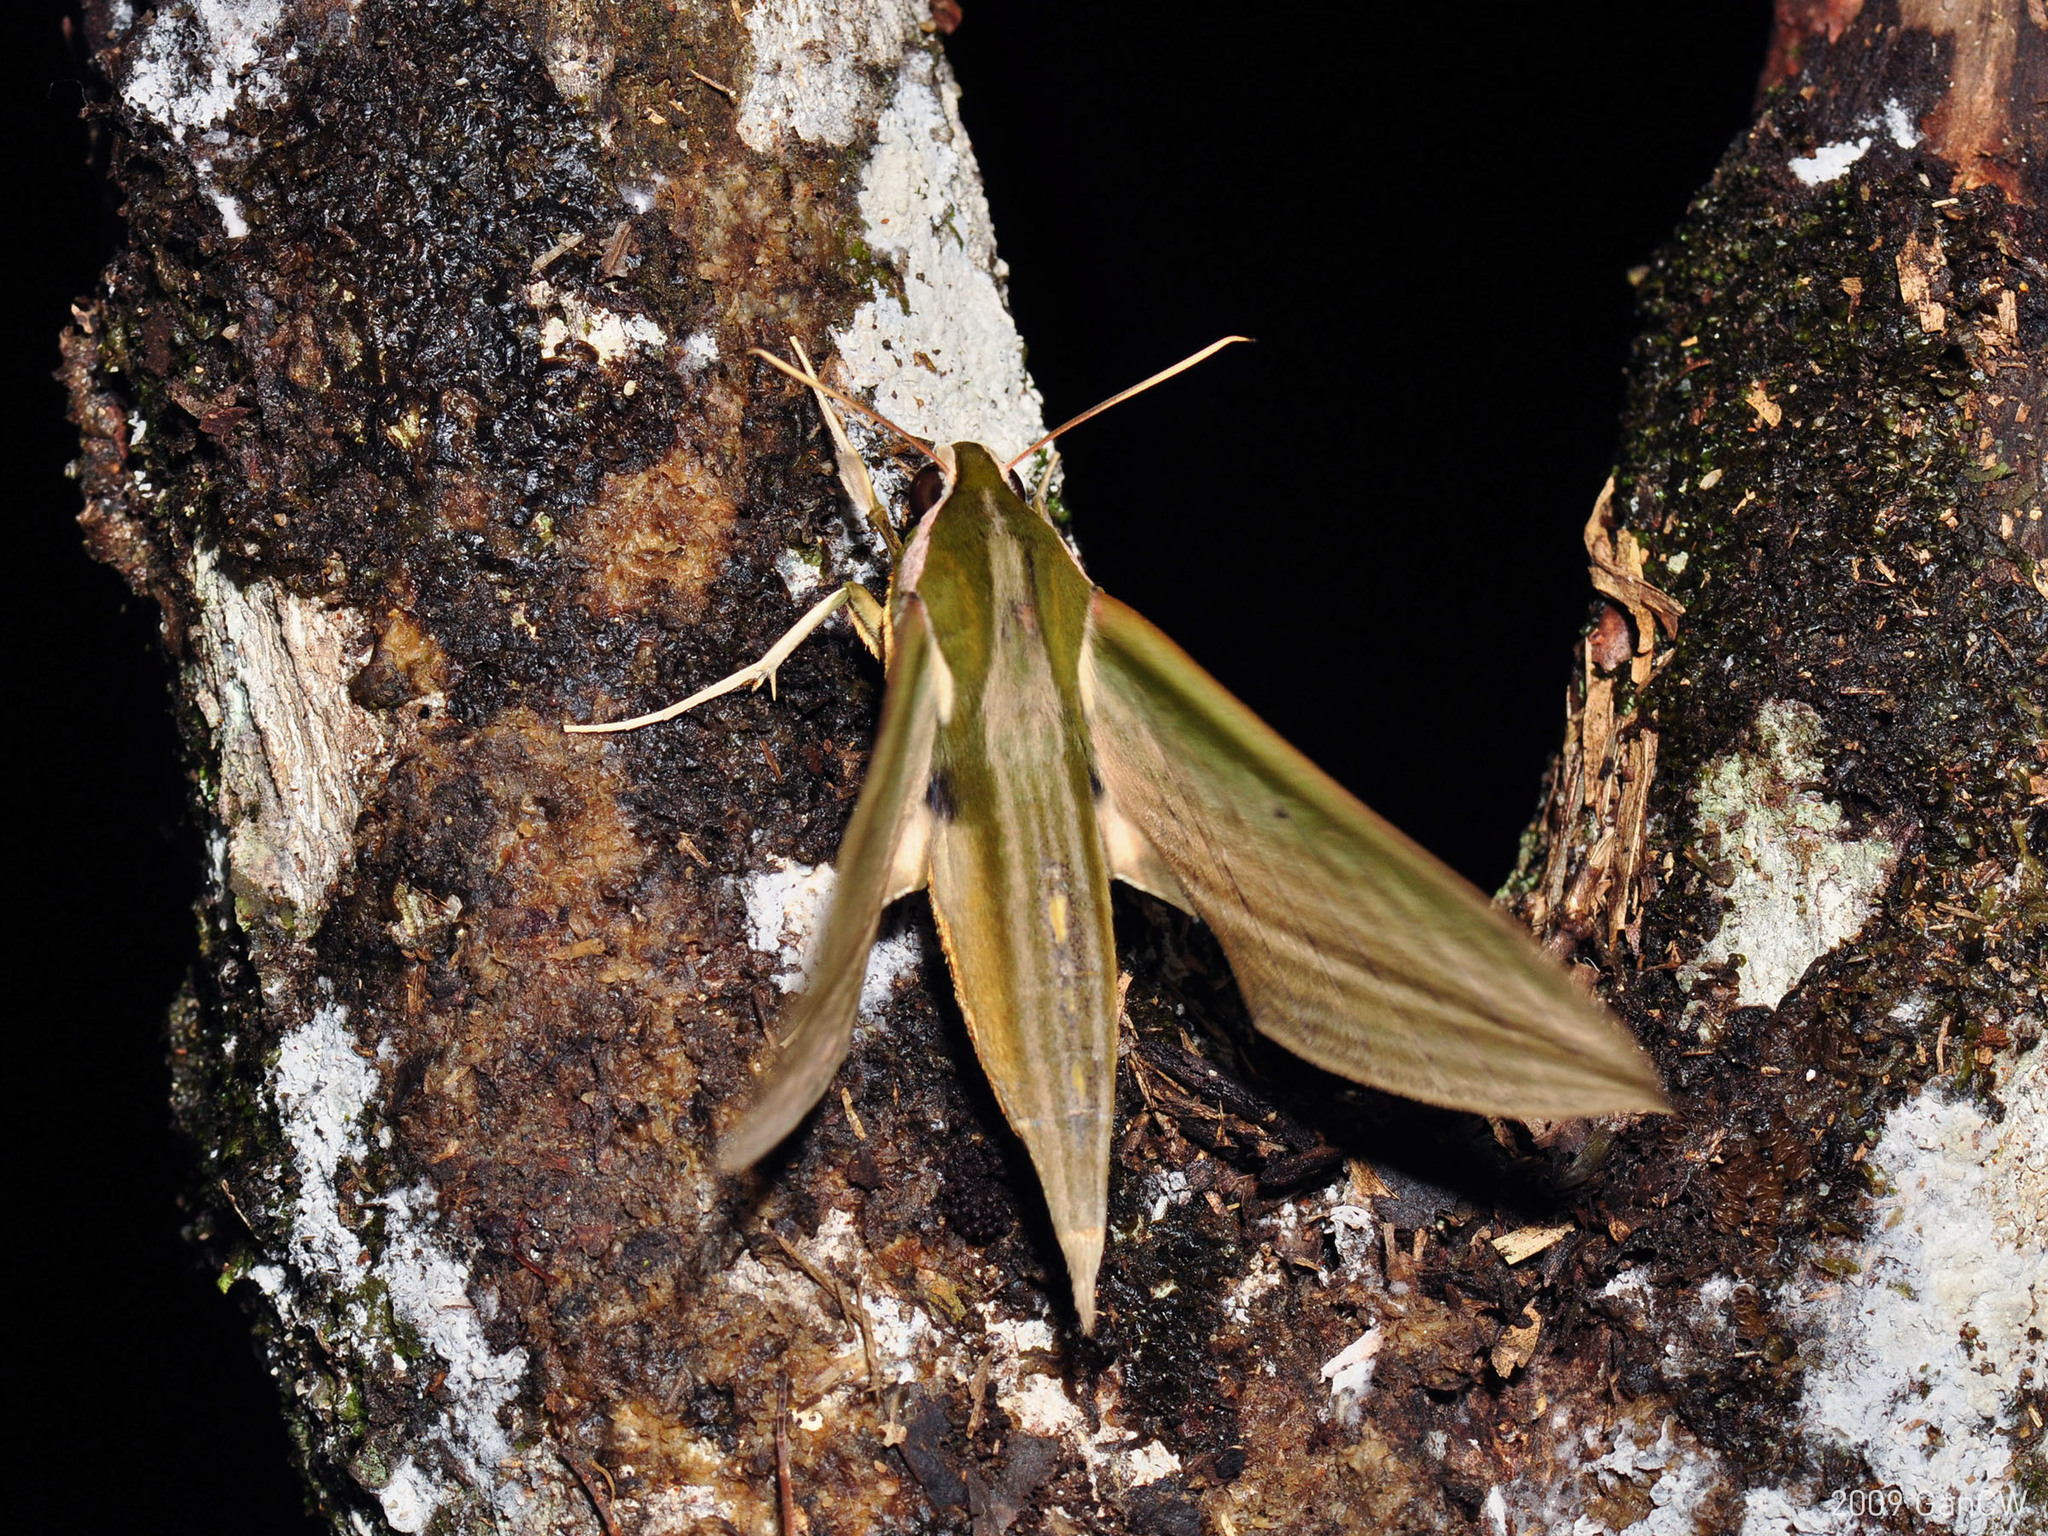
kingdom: Animalia
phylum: Arthropoda
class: Insecta
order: Lepidoptera
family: Sphingidae
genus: Cechetra
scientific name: Cechetra lineosa
